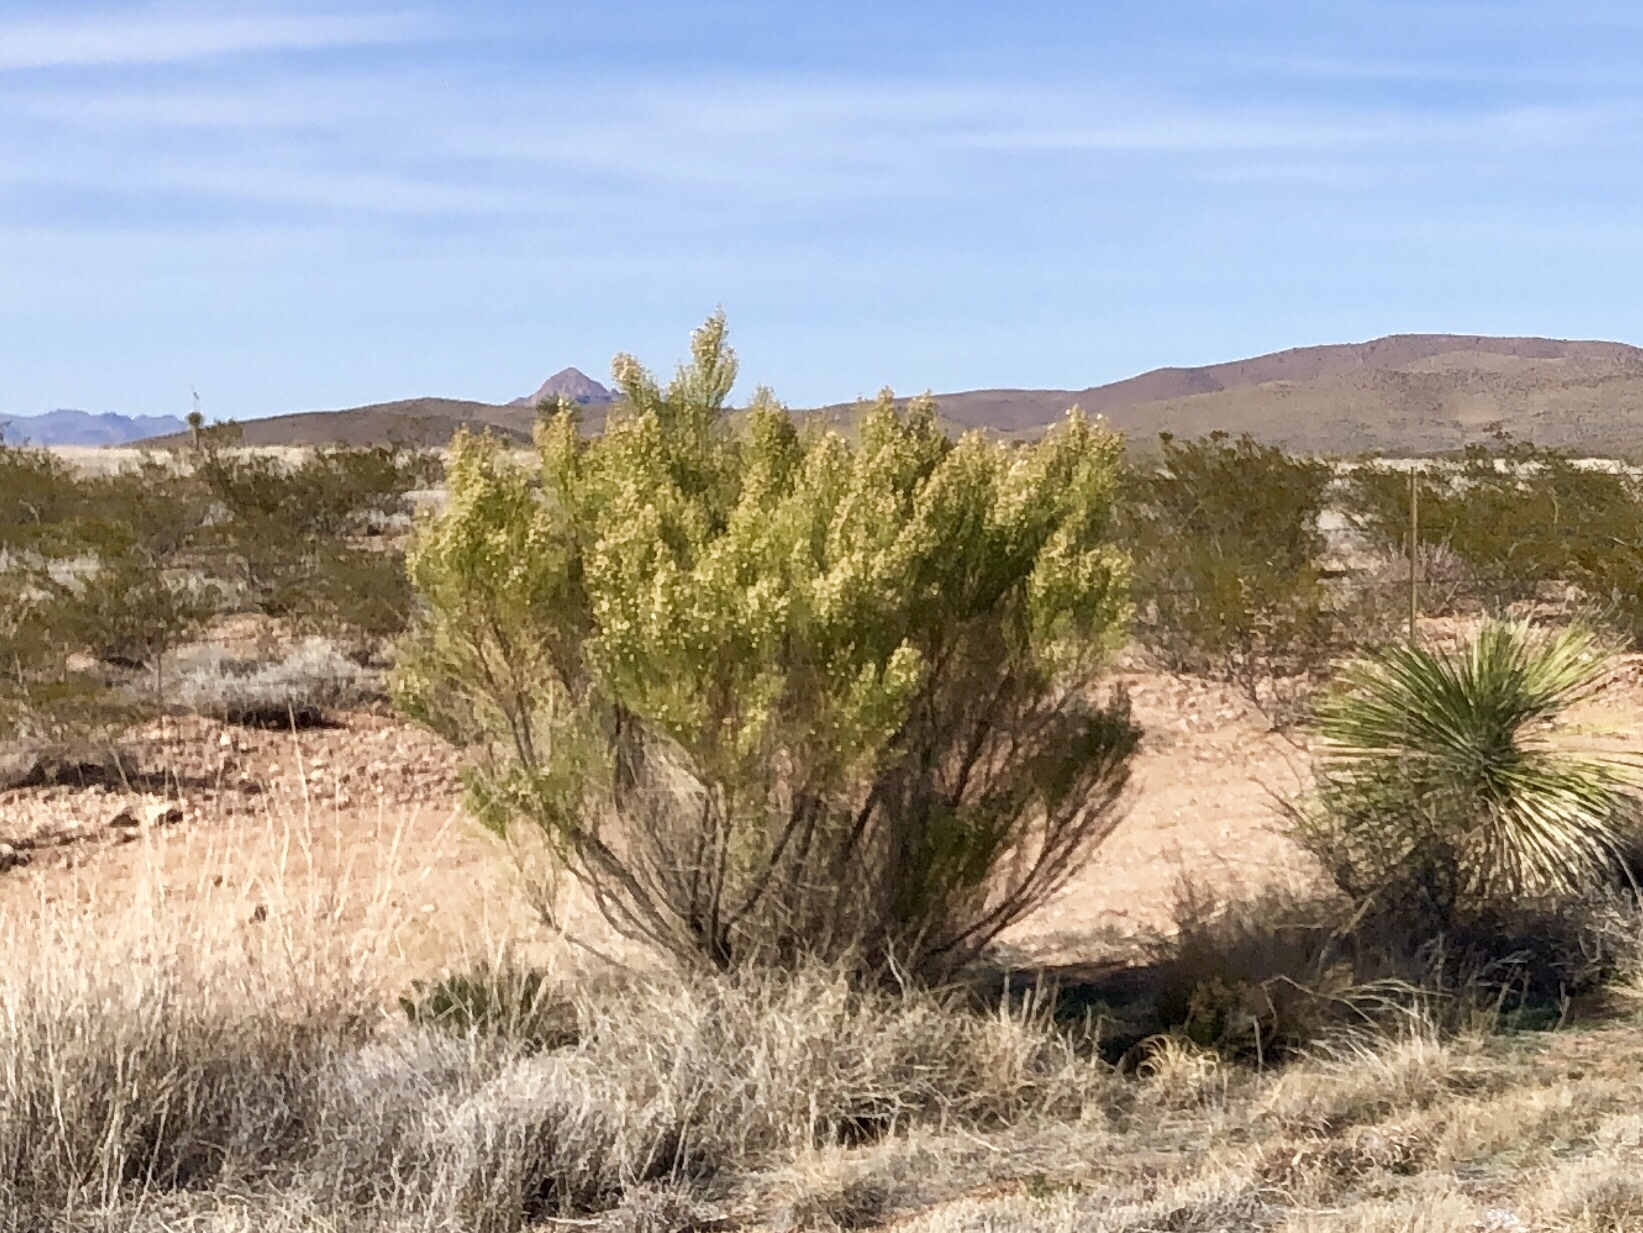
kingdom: Plantae
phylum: Tracheophyta
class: Magnoliopsida
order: Asterales
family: Asteraceae
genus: Baccharis
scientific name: Baccharis sarothroides
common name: Desert-broom
